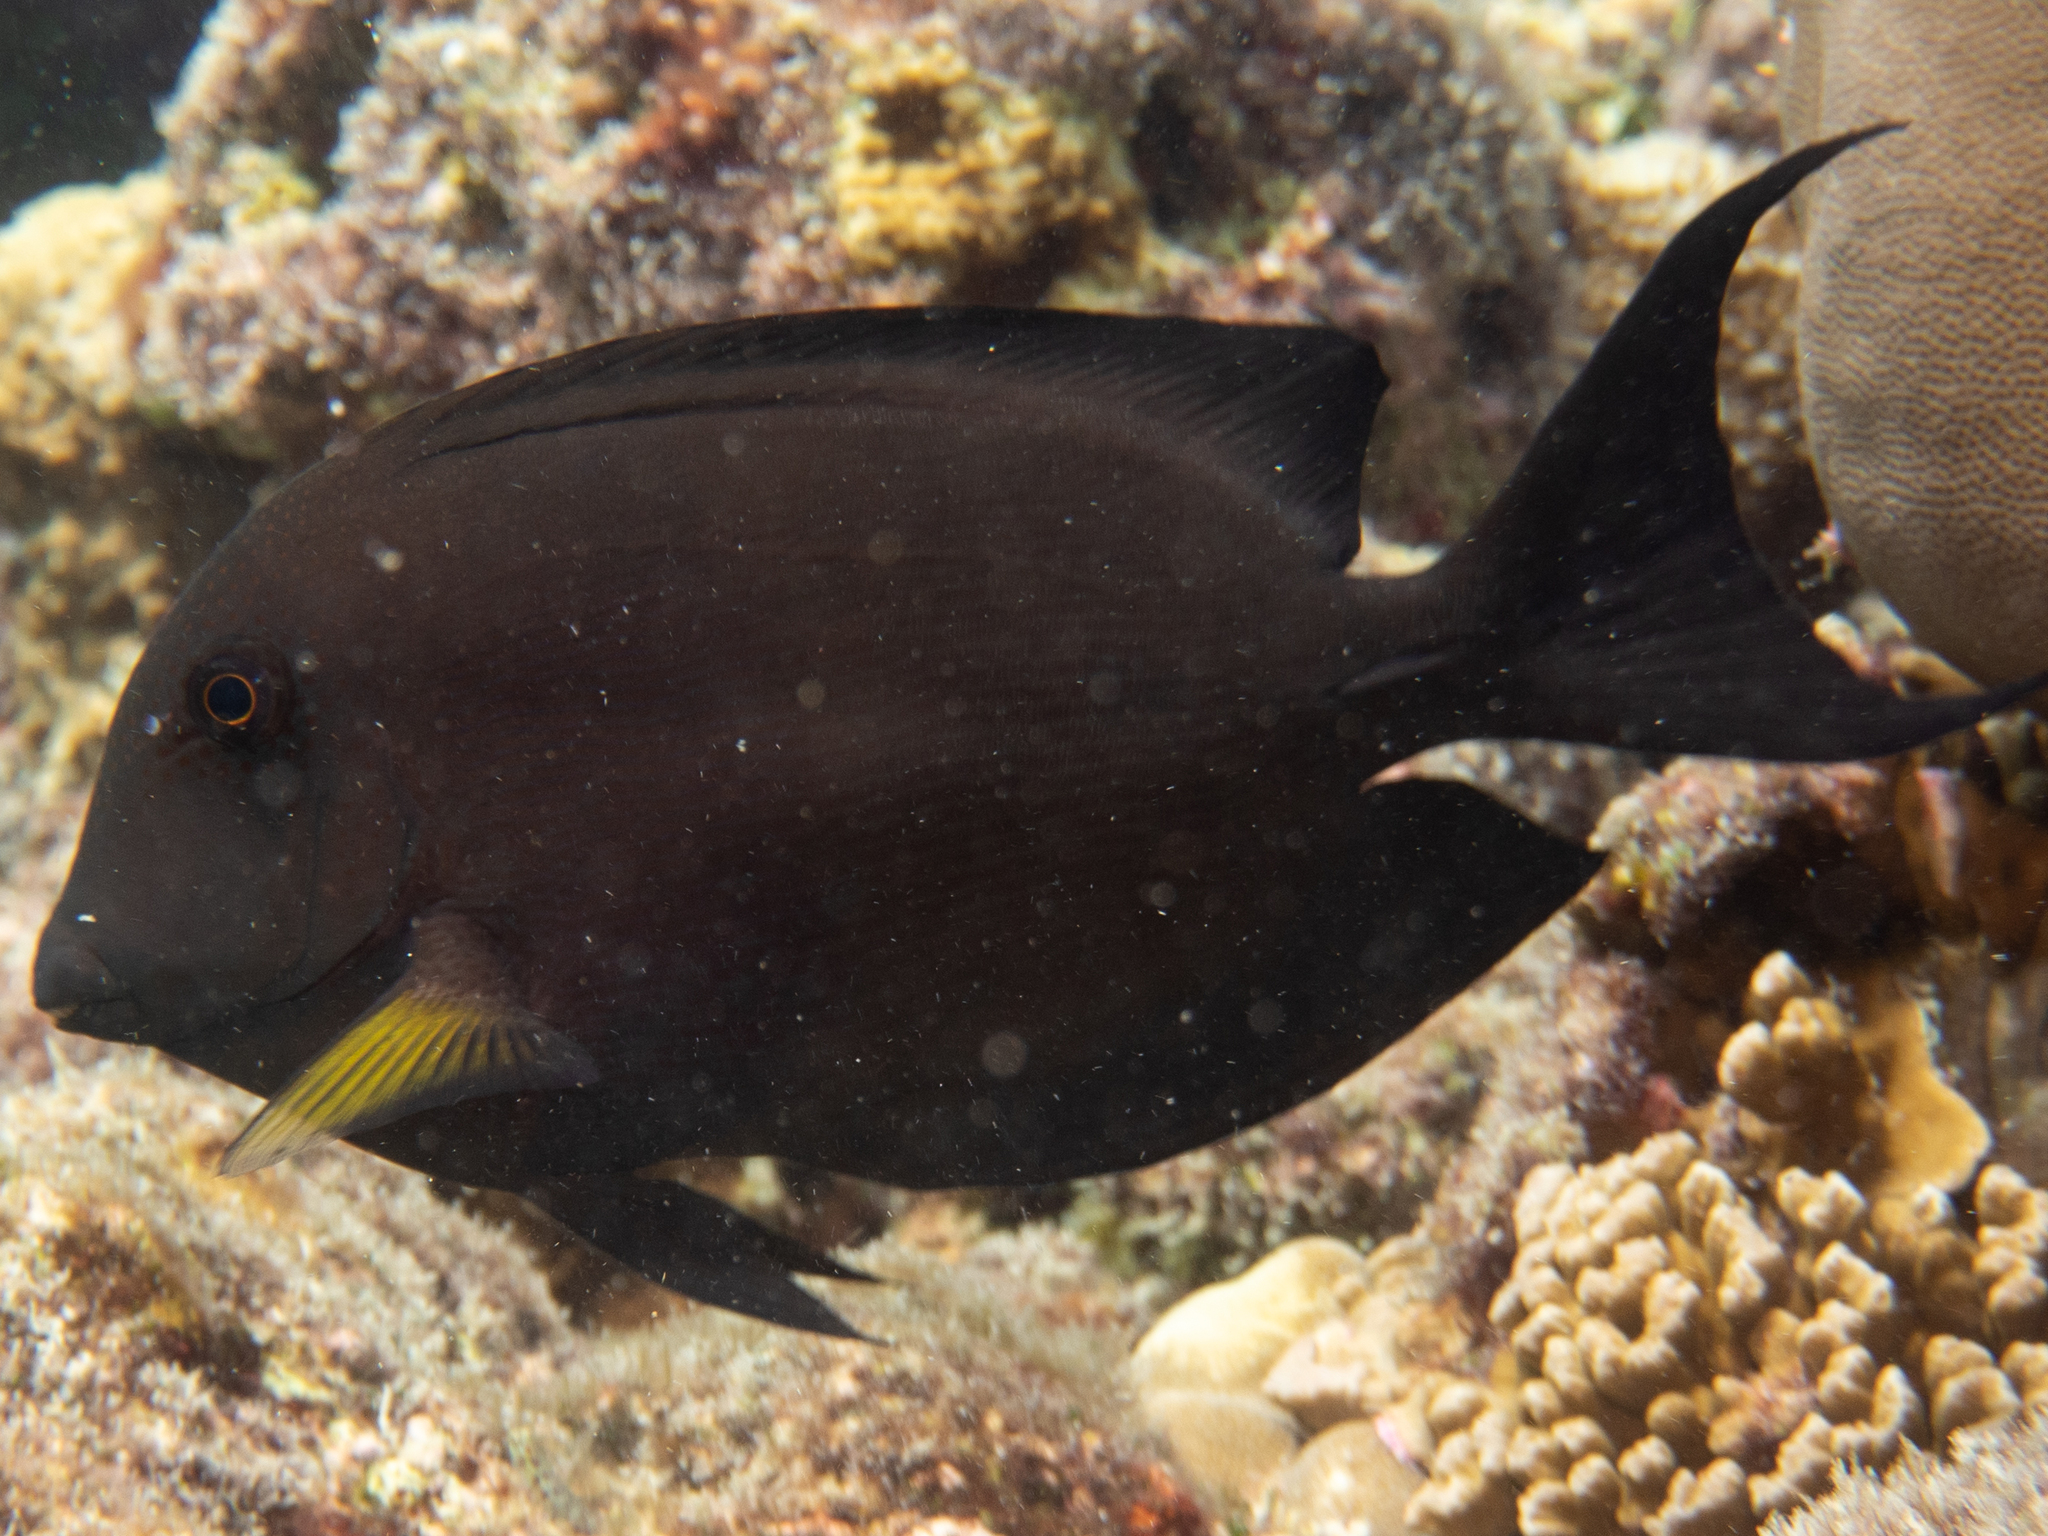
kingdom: Animalia
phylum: Chordata
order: Perciformes
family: Acanthuridae
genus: Ctenochaetus
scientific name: Ctenochaetus striatus
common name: Bristle-toothed surgeonfish
